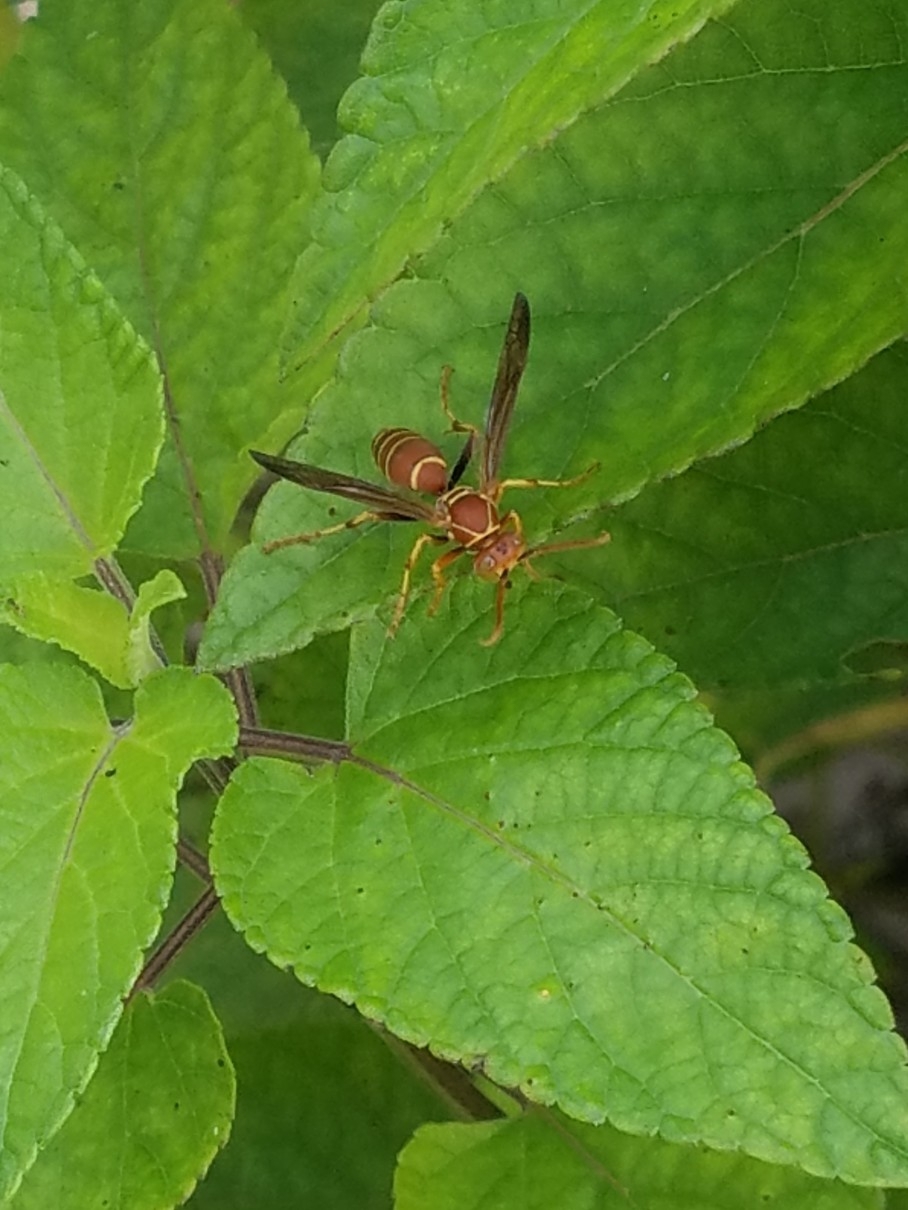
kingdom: Animalia
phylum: Arthropoda
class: Insecta
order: Hymenoptera
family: Eumenidae
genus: Polistes
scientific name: Polistes dorsalis
